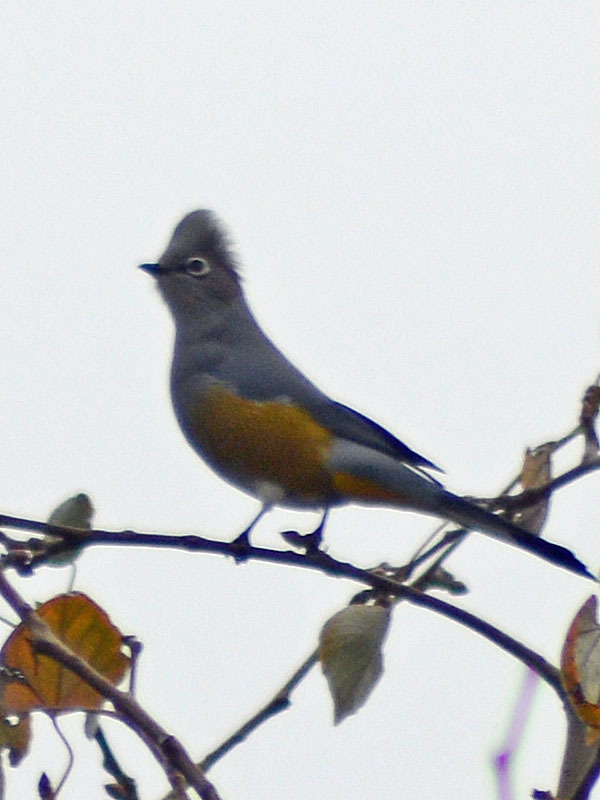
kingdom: Animalia
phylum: Chordata
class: Aves
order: Passeriformes
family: Ptilogonatidae
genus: Ptilogonys
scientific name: Ptilogonys cinereus
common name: Gray silky-flycatcher
